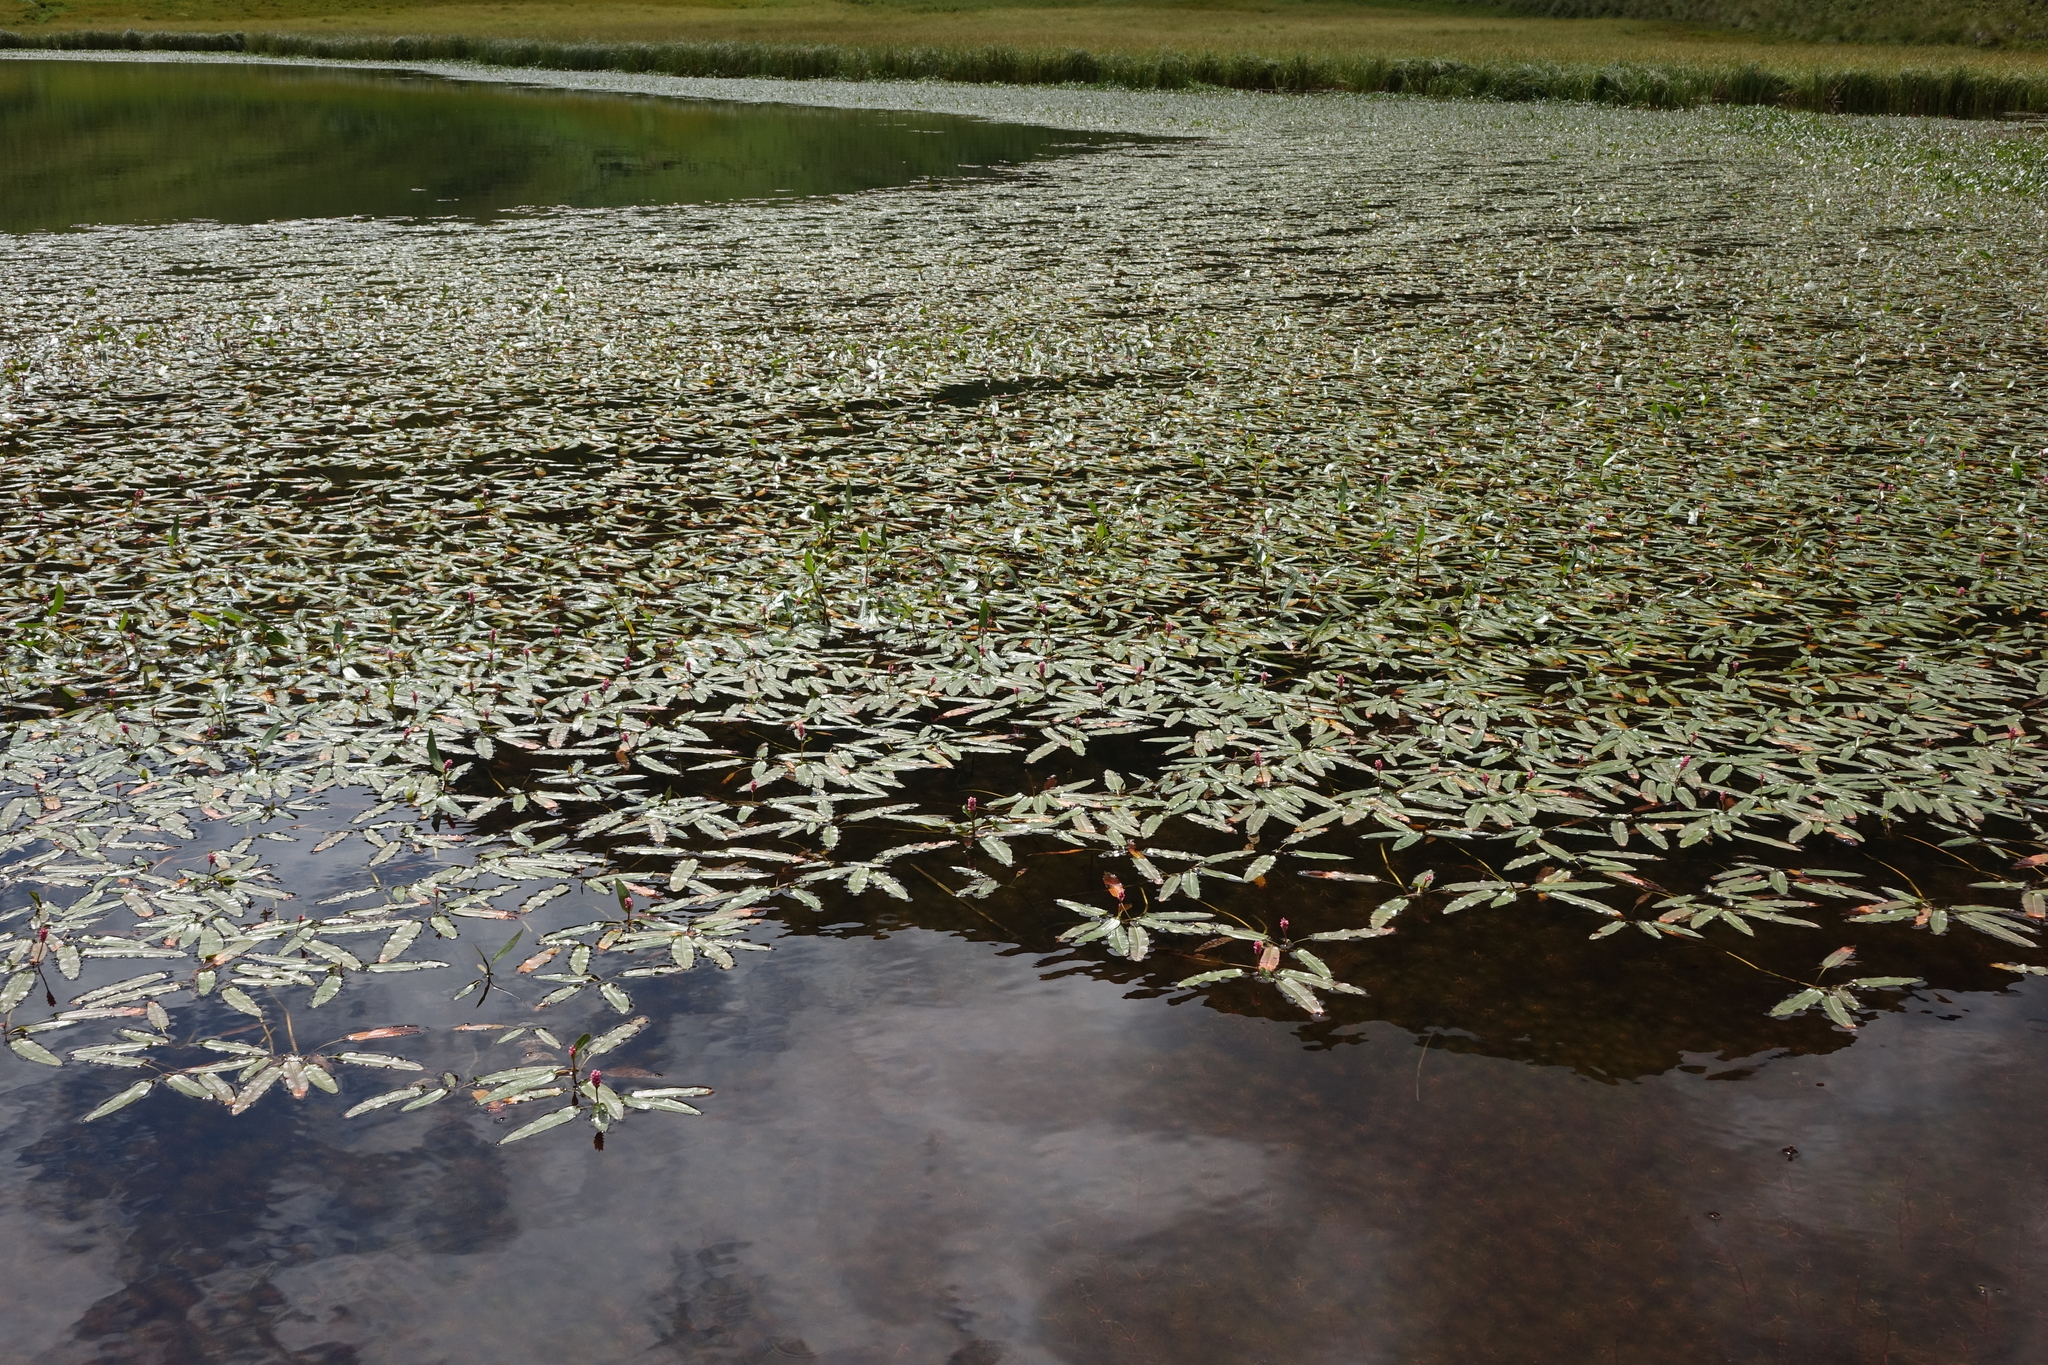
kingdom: Plantae
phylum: Tracheophyta
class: Magnoliopsida
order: Caryophyllales
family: Polygonaceae
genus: Persicaria
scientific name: Persicaria amphibia
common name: Amphibious bistort
